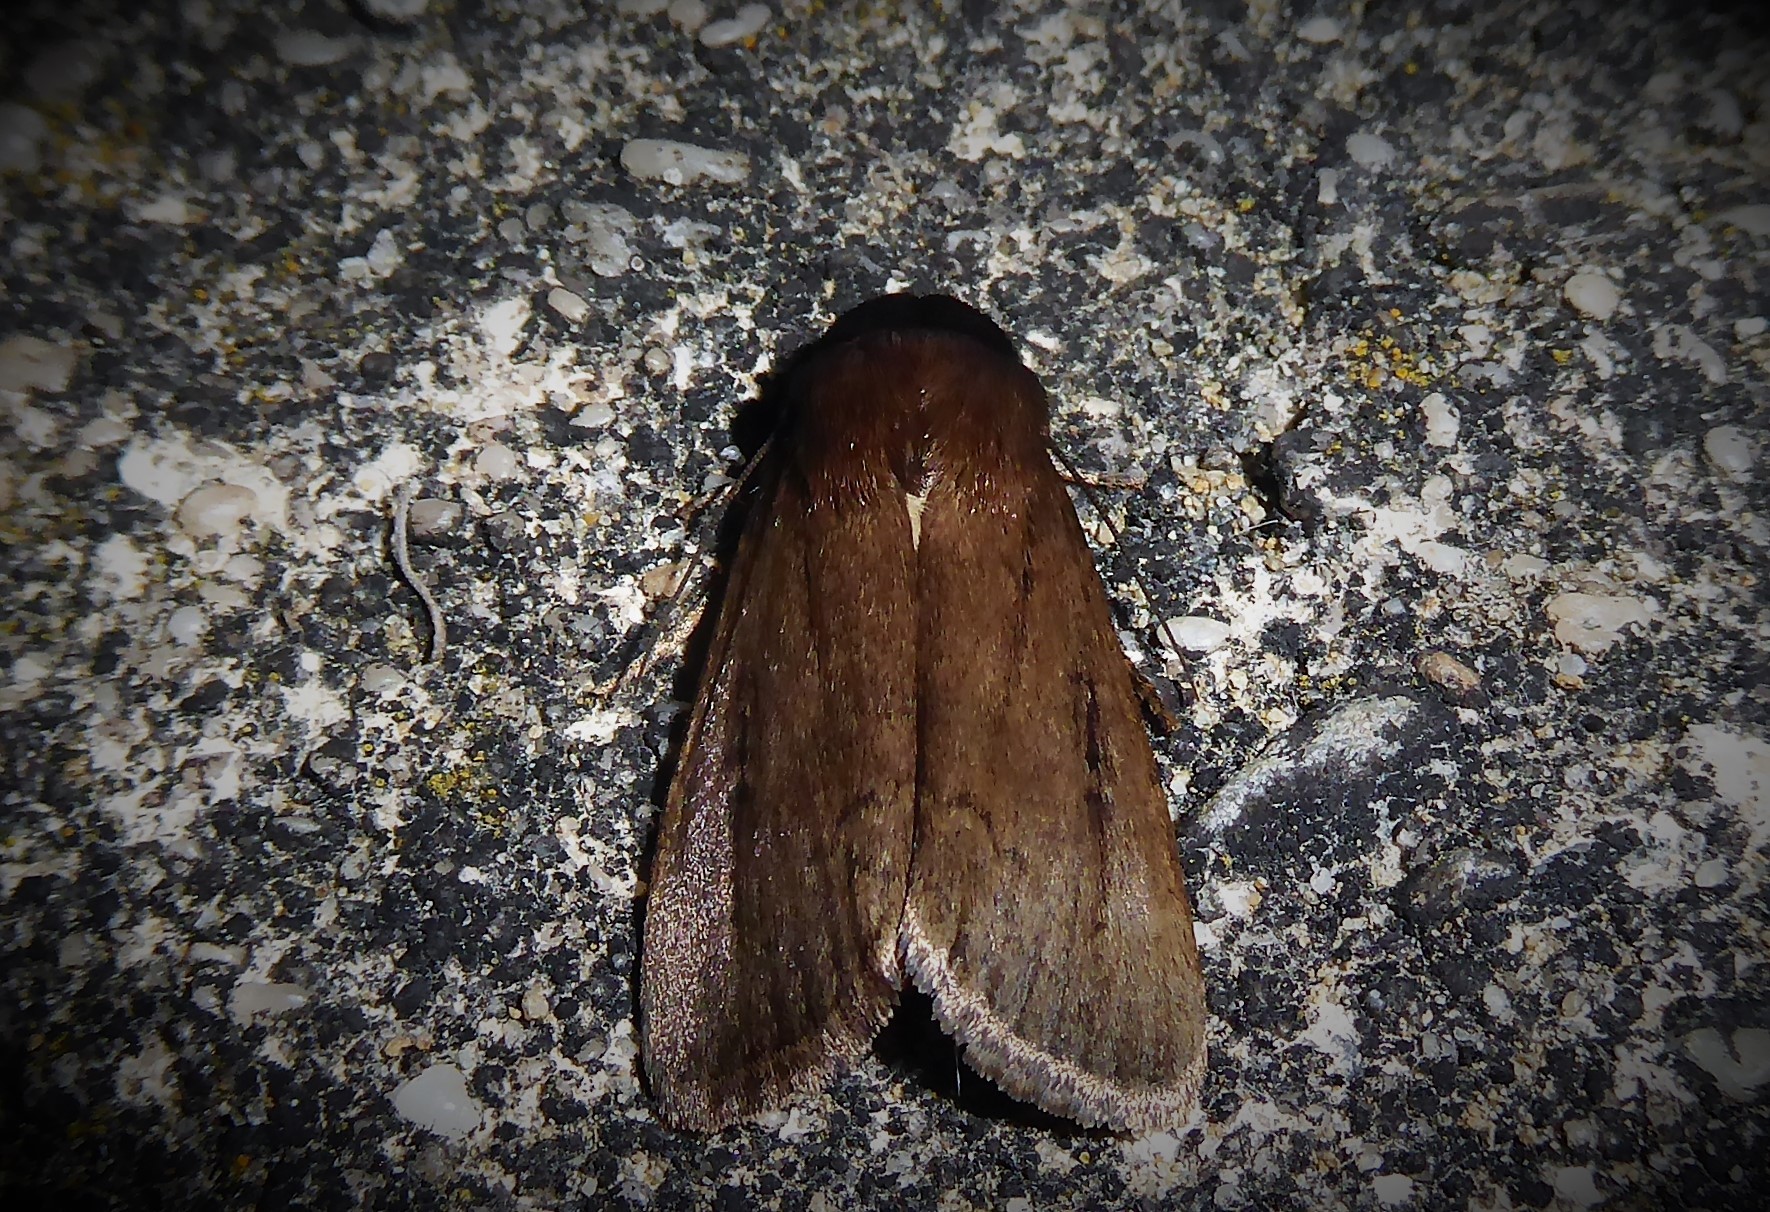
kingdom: Animalia
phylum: Arthropoda
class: Insecta
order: Lepidoptera
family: Noctuidae
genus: Bityla
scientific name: Bityla defigurata
